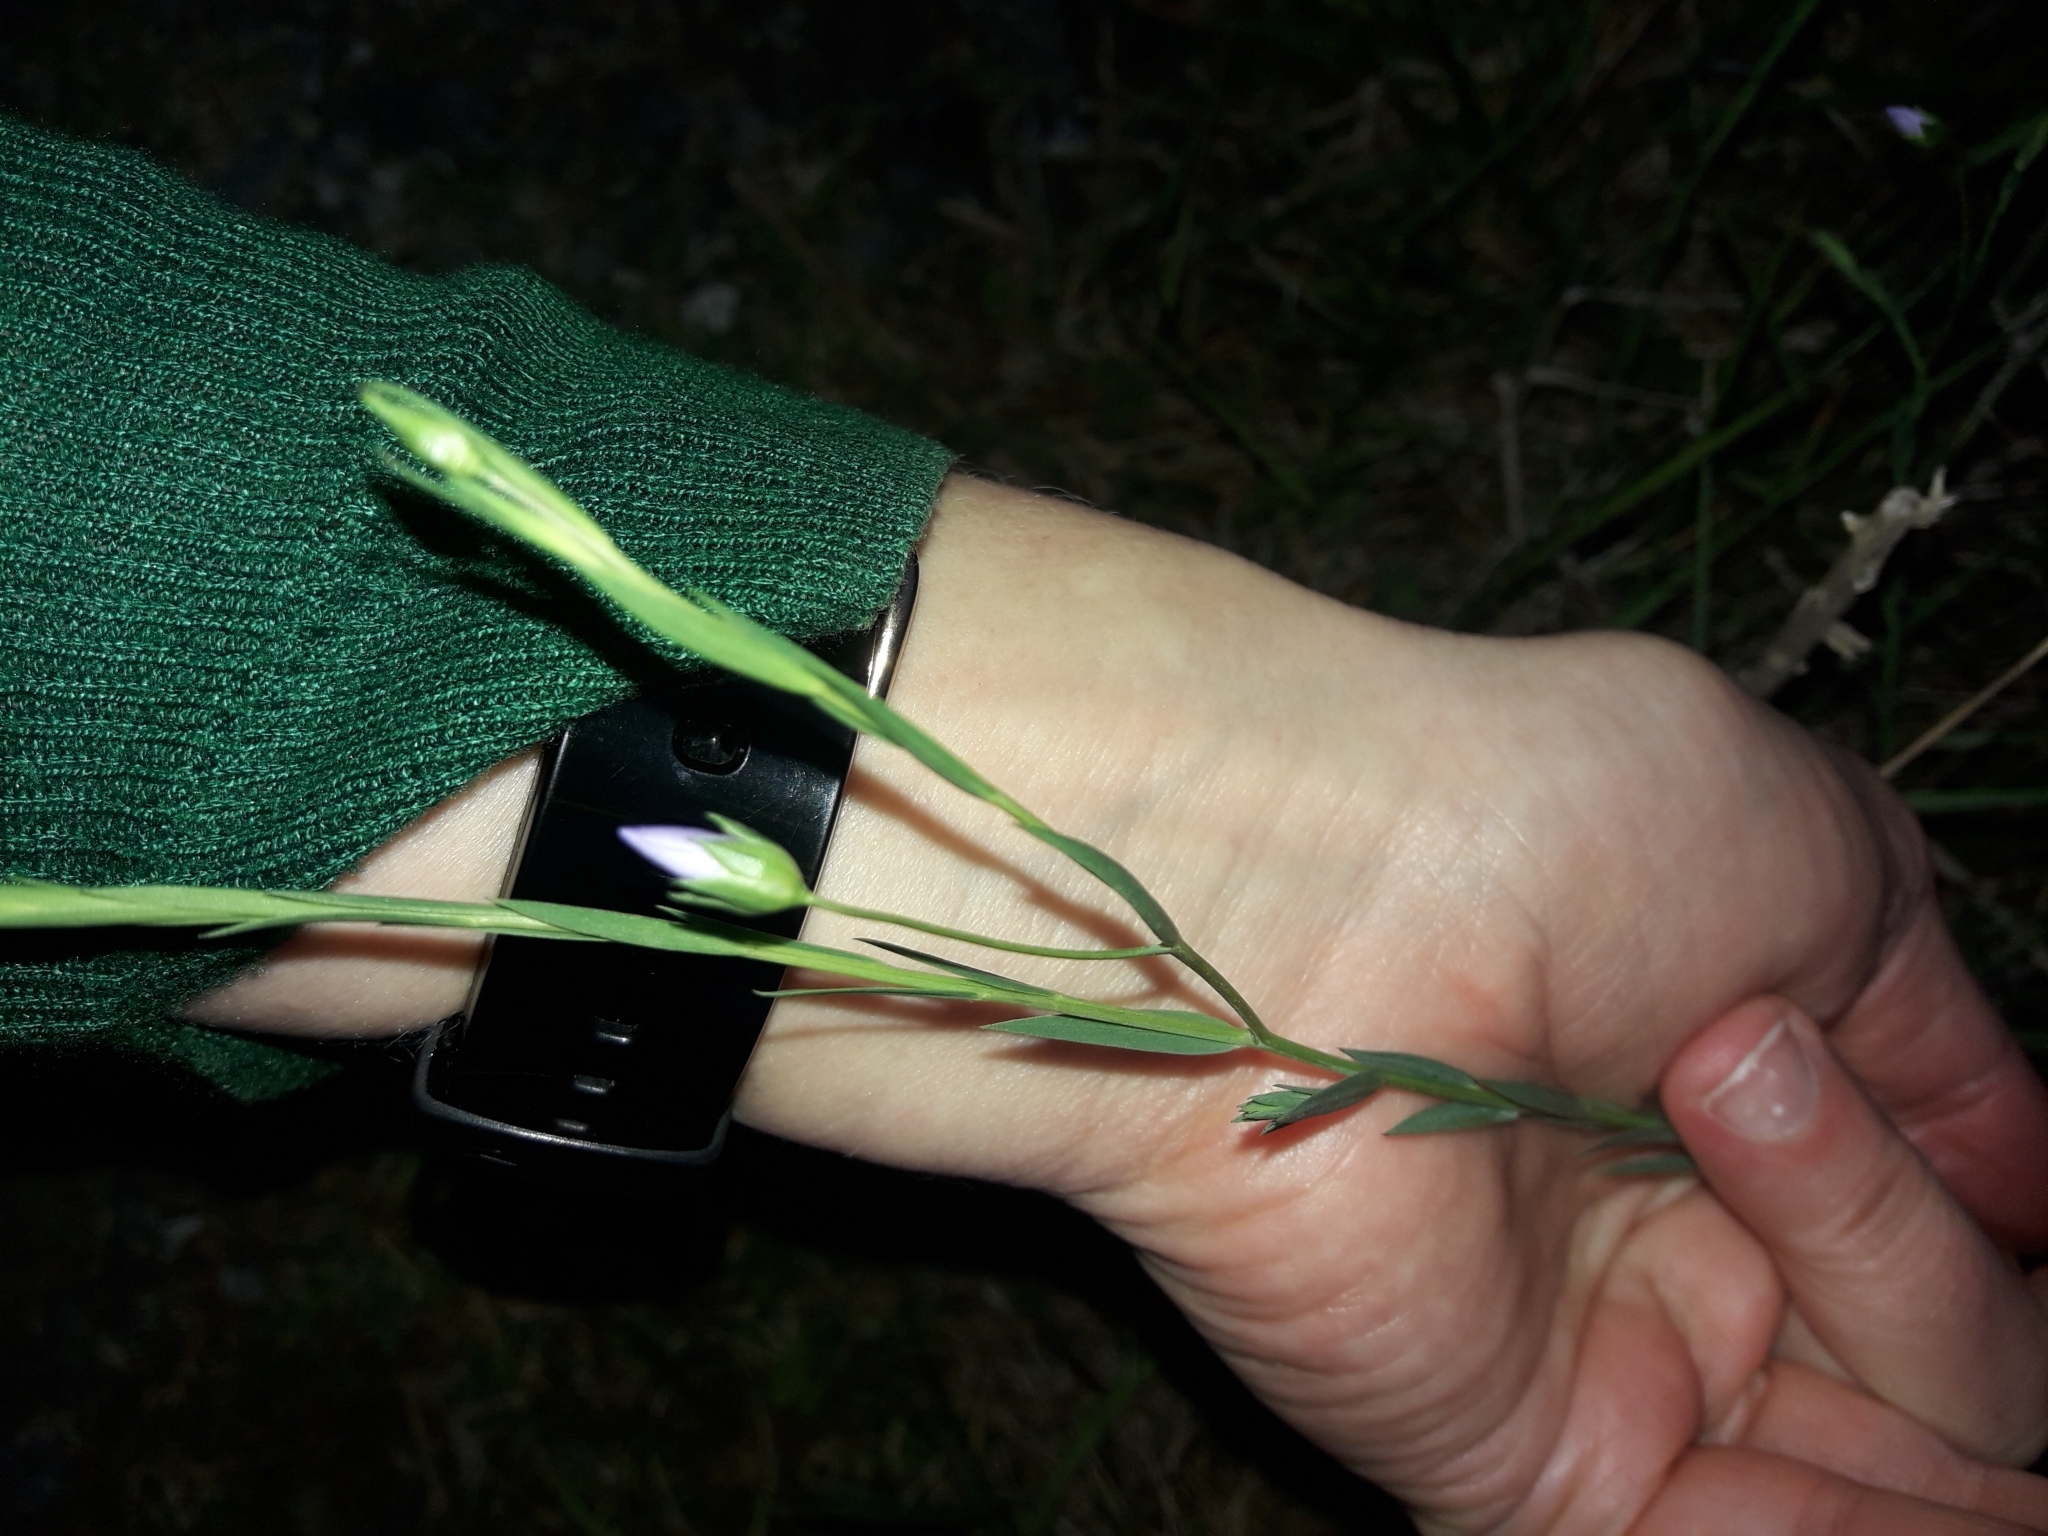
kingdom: Plantae
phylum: Tracheophyta
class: Magnoliopsida
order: Malpighiales
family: Linaceae
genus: Linum
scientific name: Linum bienne
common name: Pale flax
